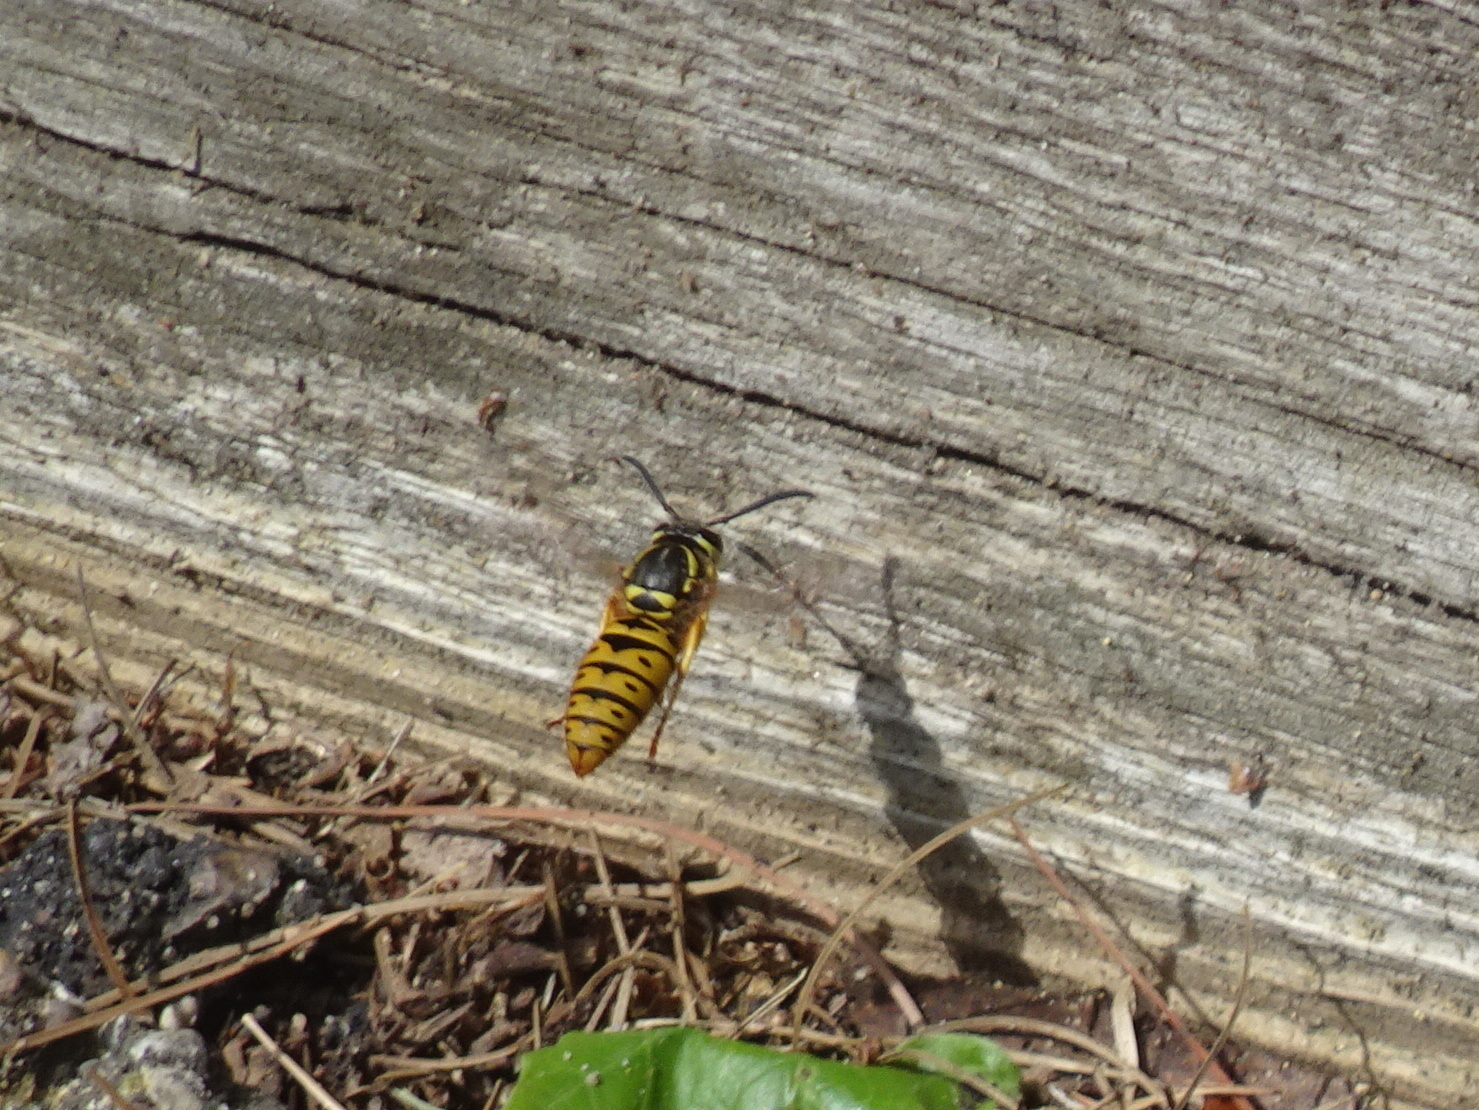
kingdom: Animalia
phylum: Arthropoda
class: Insecta
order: Hymenoptera
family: Vespidae
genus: Vespula
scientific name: Vespula maculifrons
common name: Eastern yellowjacket
